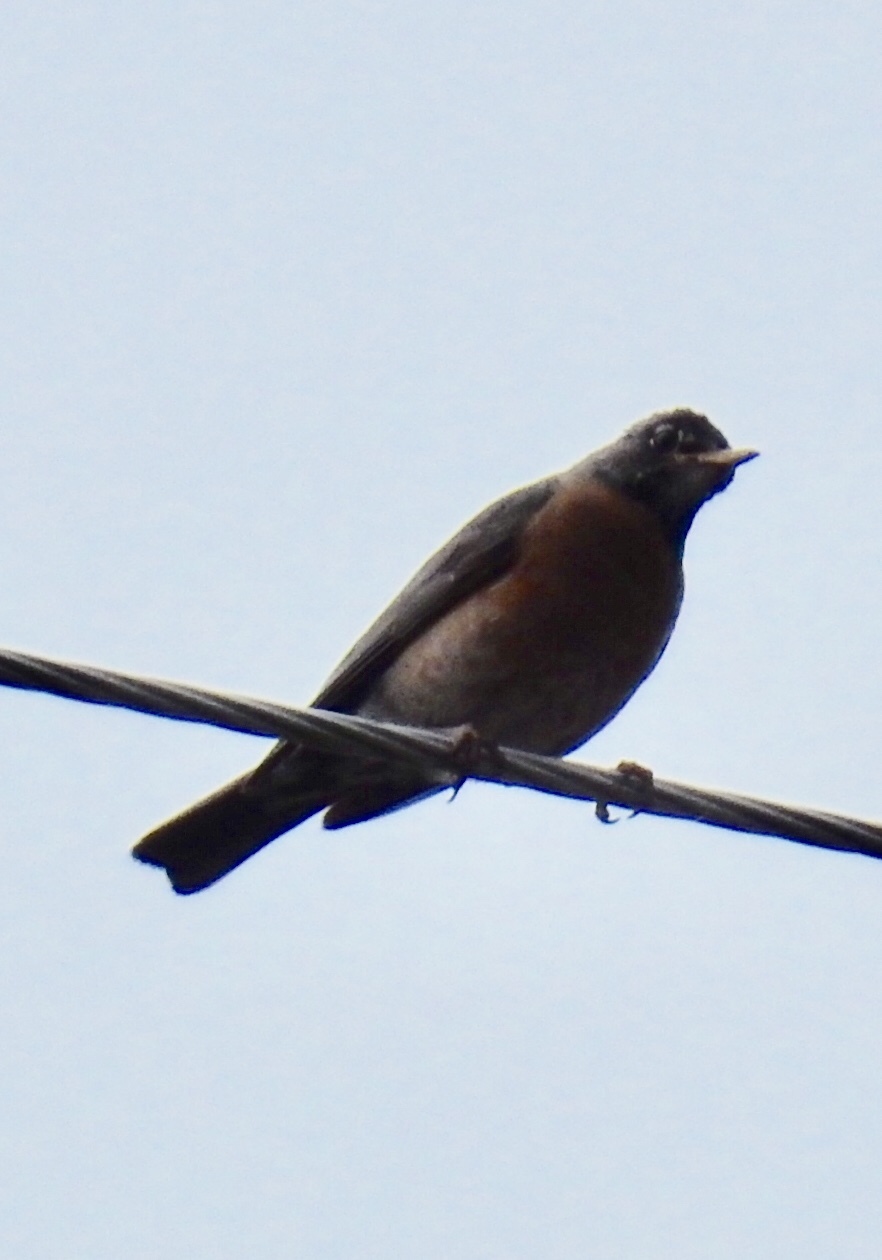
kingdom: Animalia
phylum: Chordata
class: Aves
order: Passeriformes
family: Turdidae
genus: Turdus
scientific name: Turdus migratorius
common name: American robin
